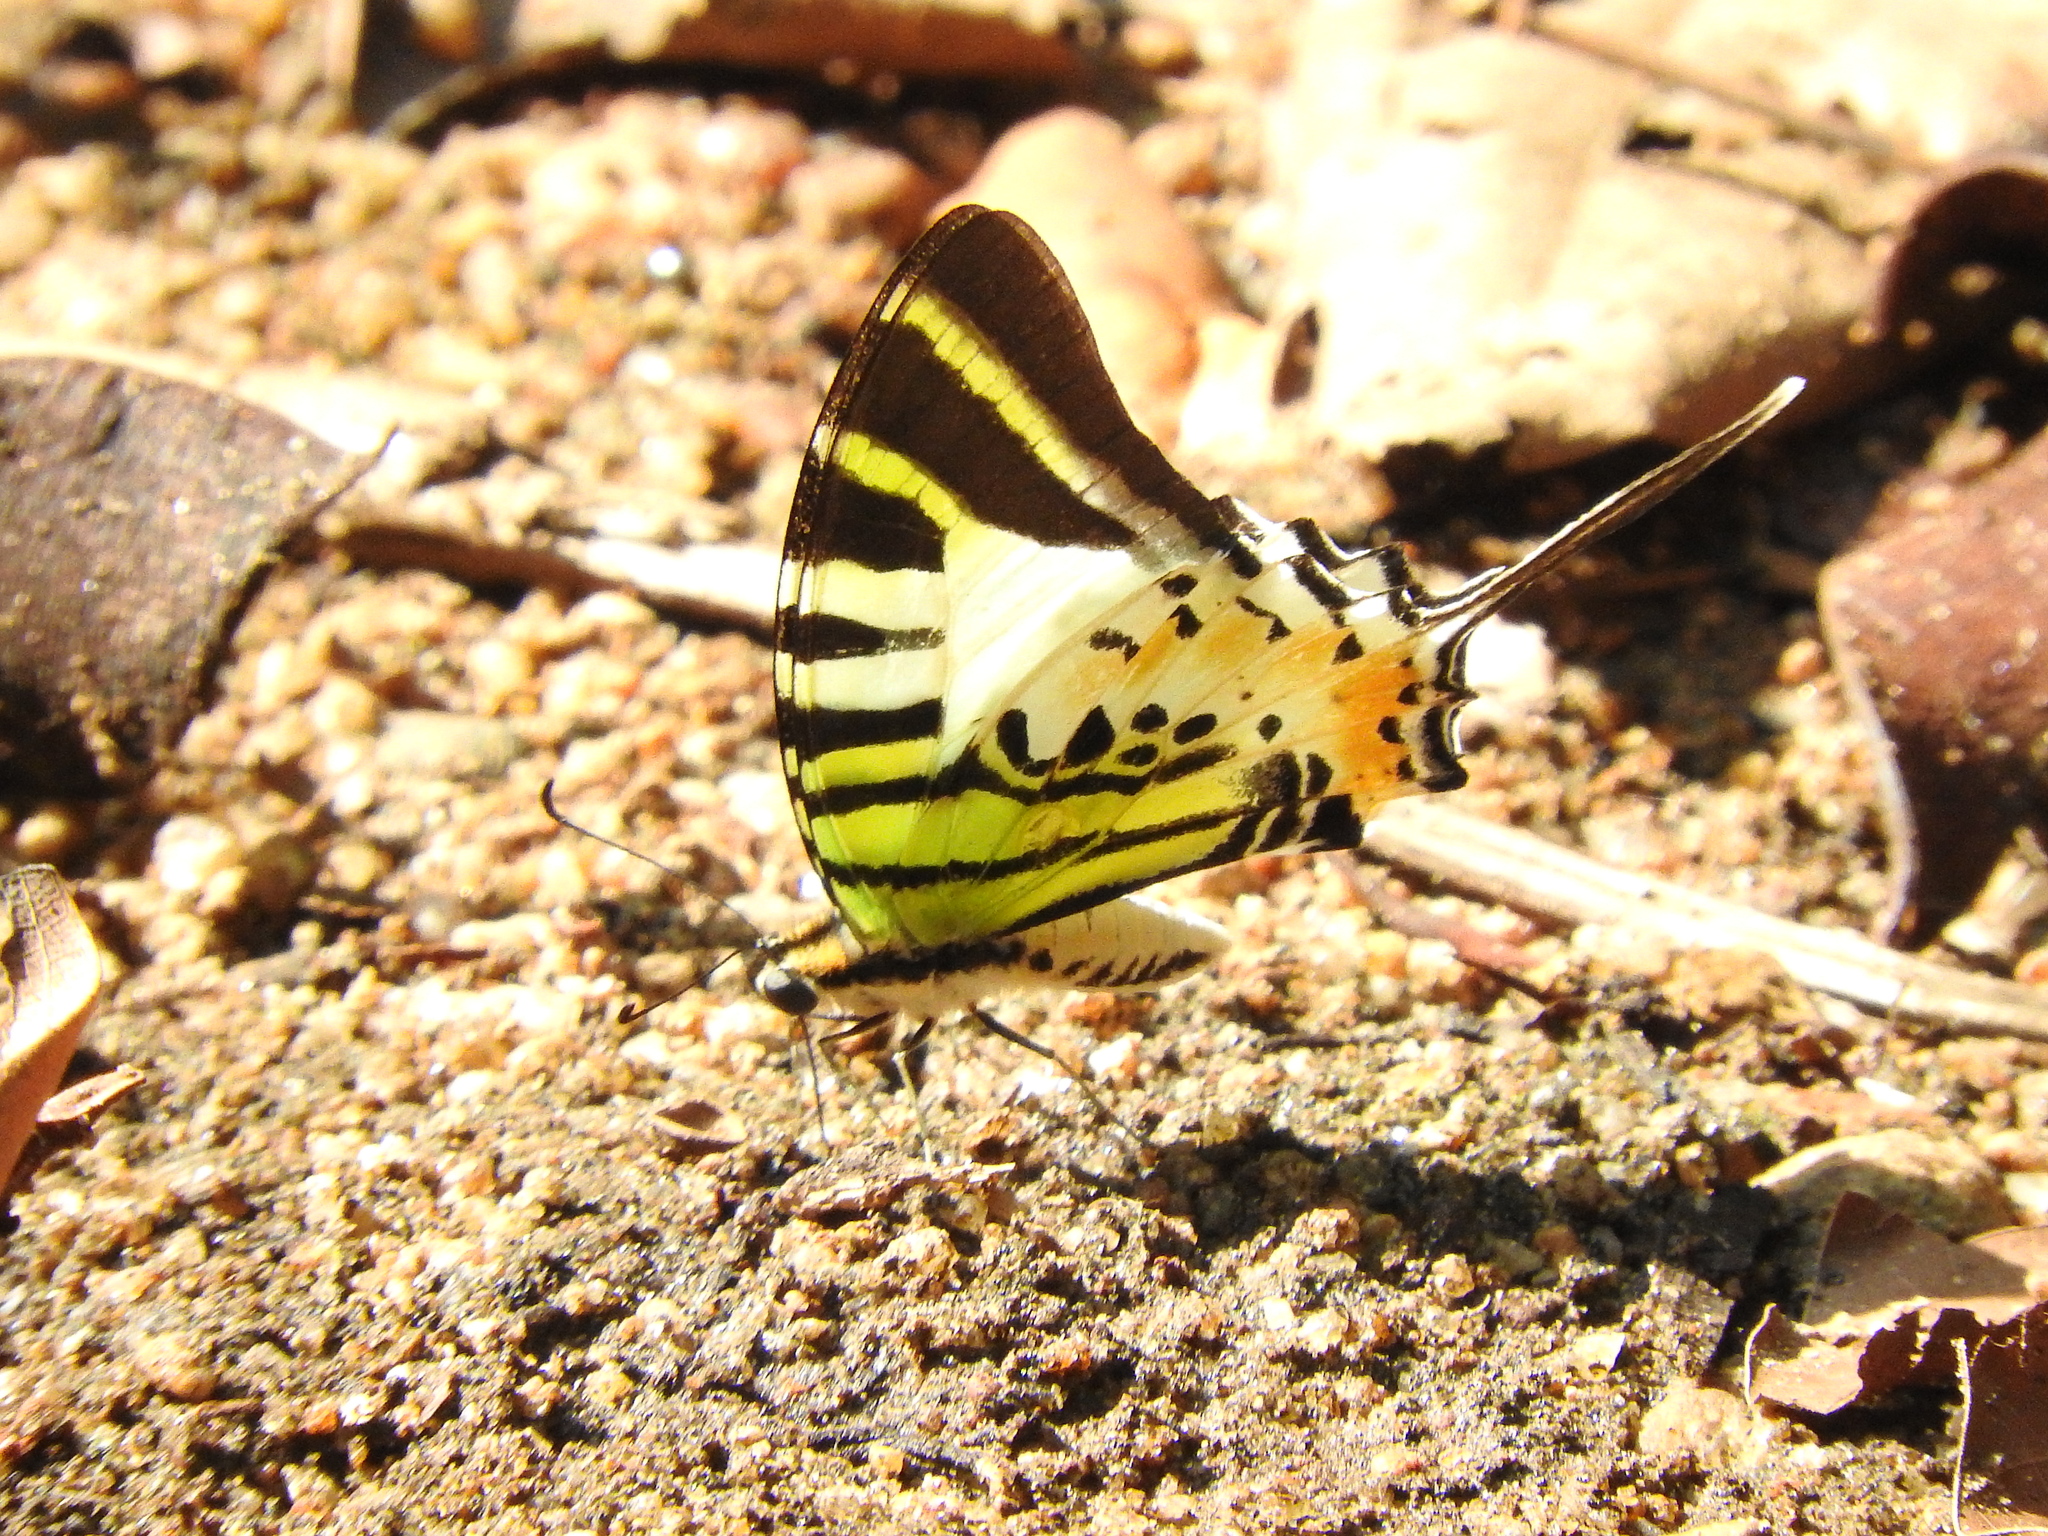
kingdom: Animalia
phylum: Arthropoda
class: Insecta
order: Lepidoptera
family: Papilionidae
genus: Graphium
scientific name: Graphium antiphates
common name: Fivebar swordtail
